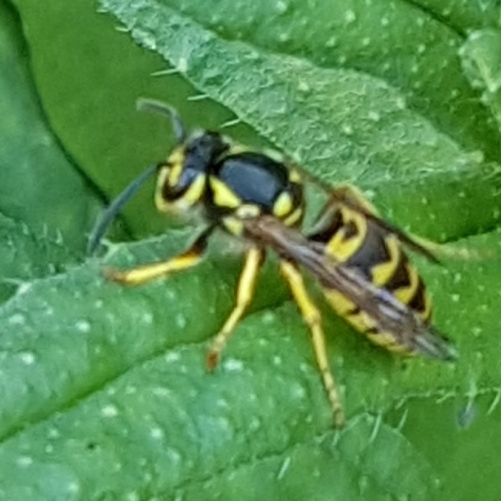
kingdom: Animalia
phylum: Arthropoda
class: Insecta
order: Hymenoptera
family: Vespidae
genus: Vespula
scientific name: Vespula germanica
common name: German wasp
